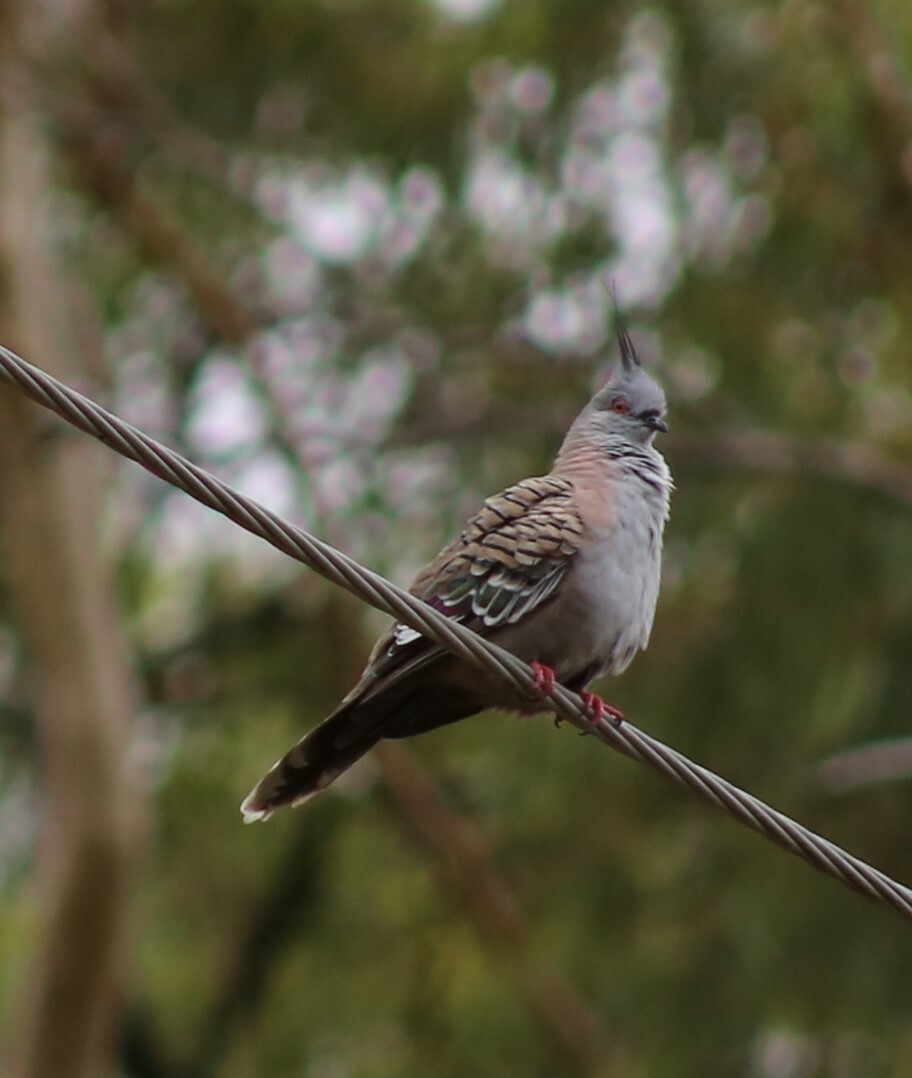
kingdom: Animalia
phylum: Chordata
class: Aves
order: Columbiformes
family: Columbidae
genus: Ocyphaps
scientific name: Ocyphaps lophotes
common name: Crested pigeon
